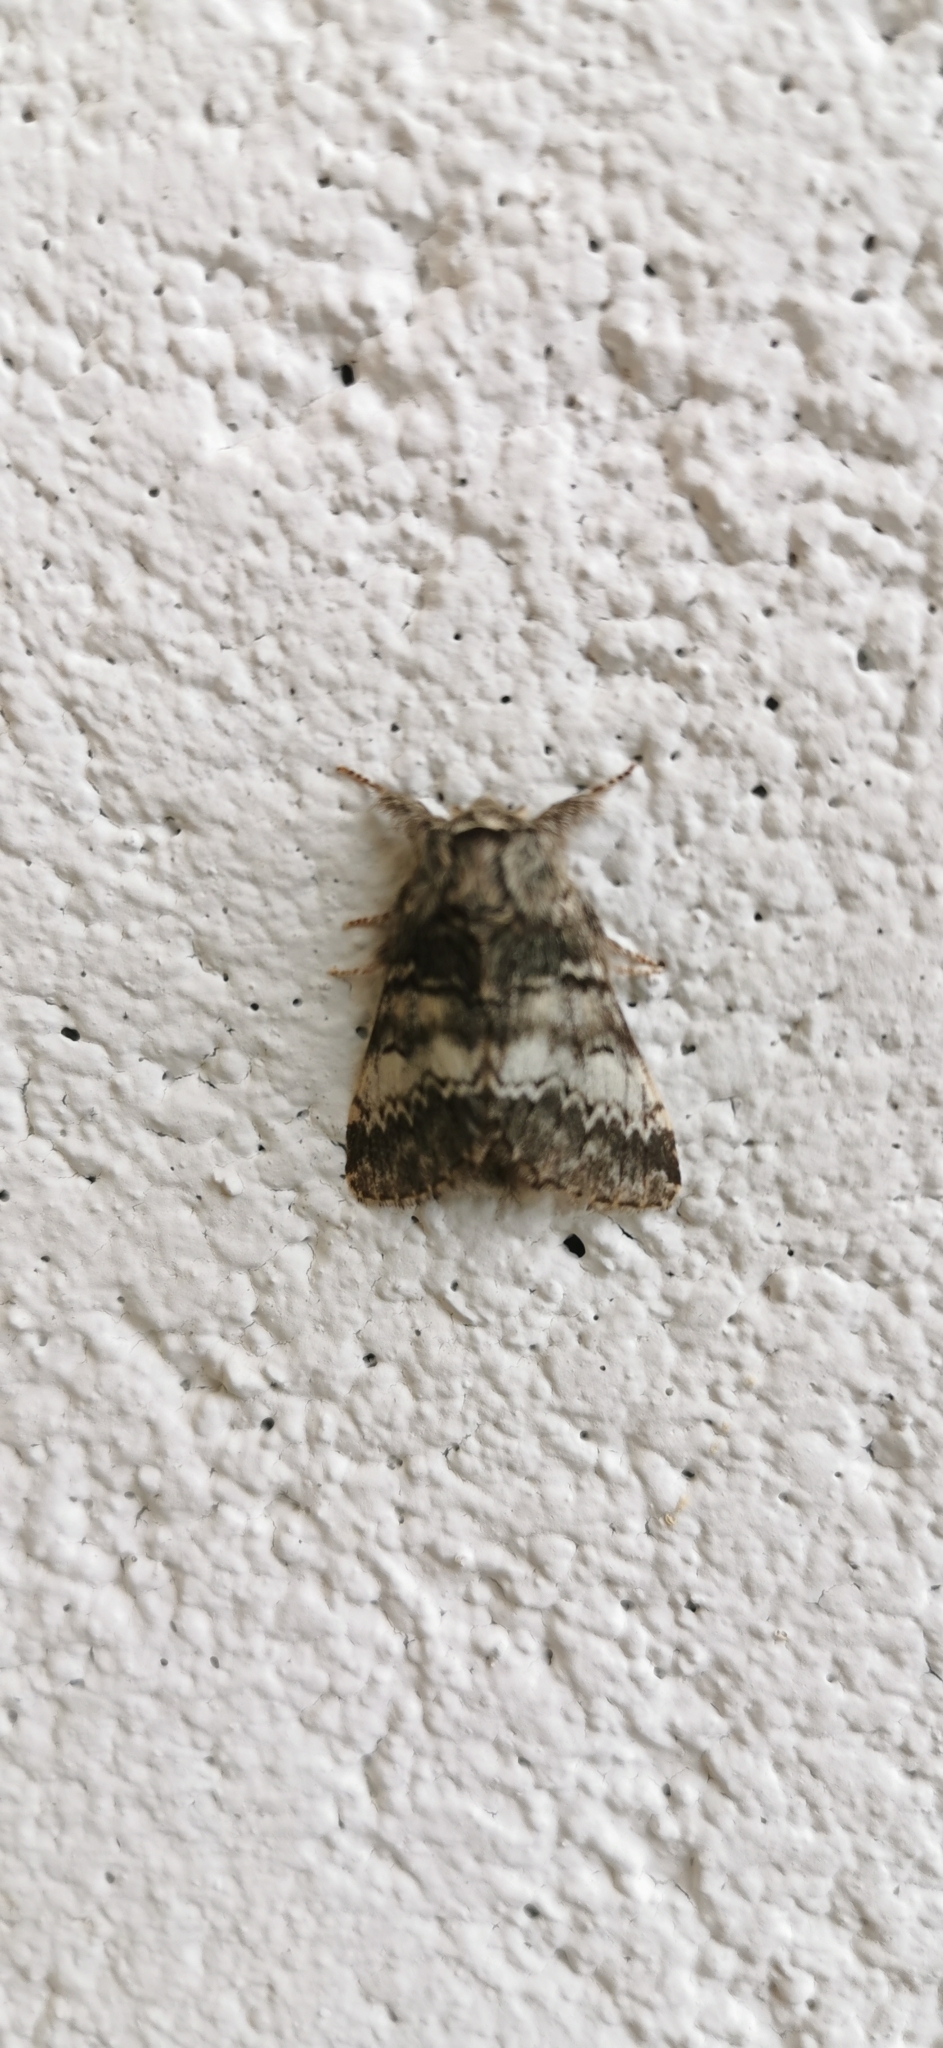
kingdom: Animalia
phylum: Arthropoda
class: Insecta
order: Lepidoptera
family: Notodontidae
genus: Drymonia
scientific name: Drymonia ruficornis
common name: Lunar marbled brown
